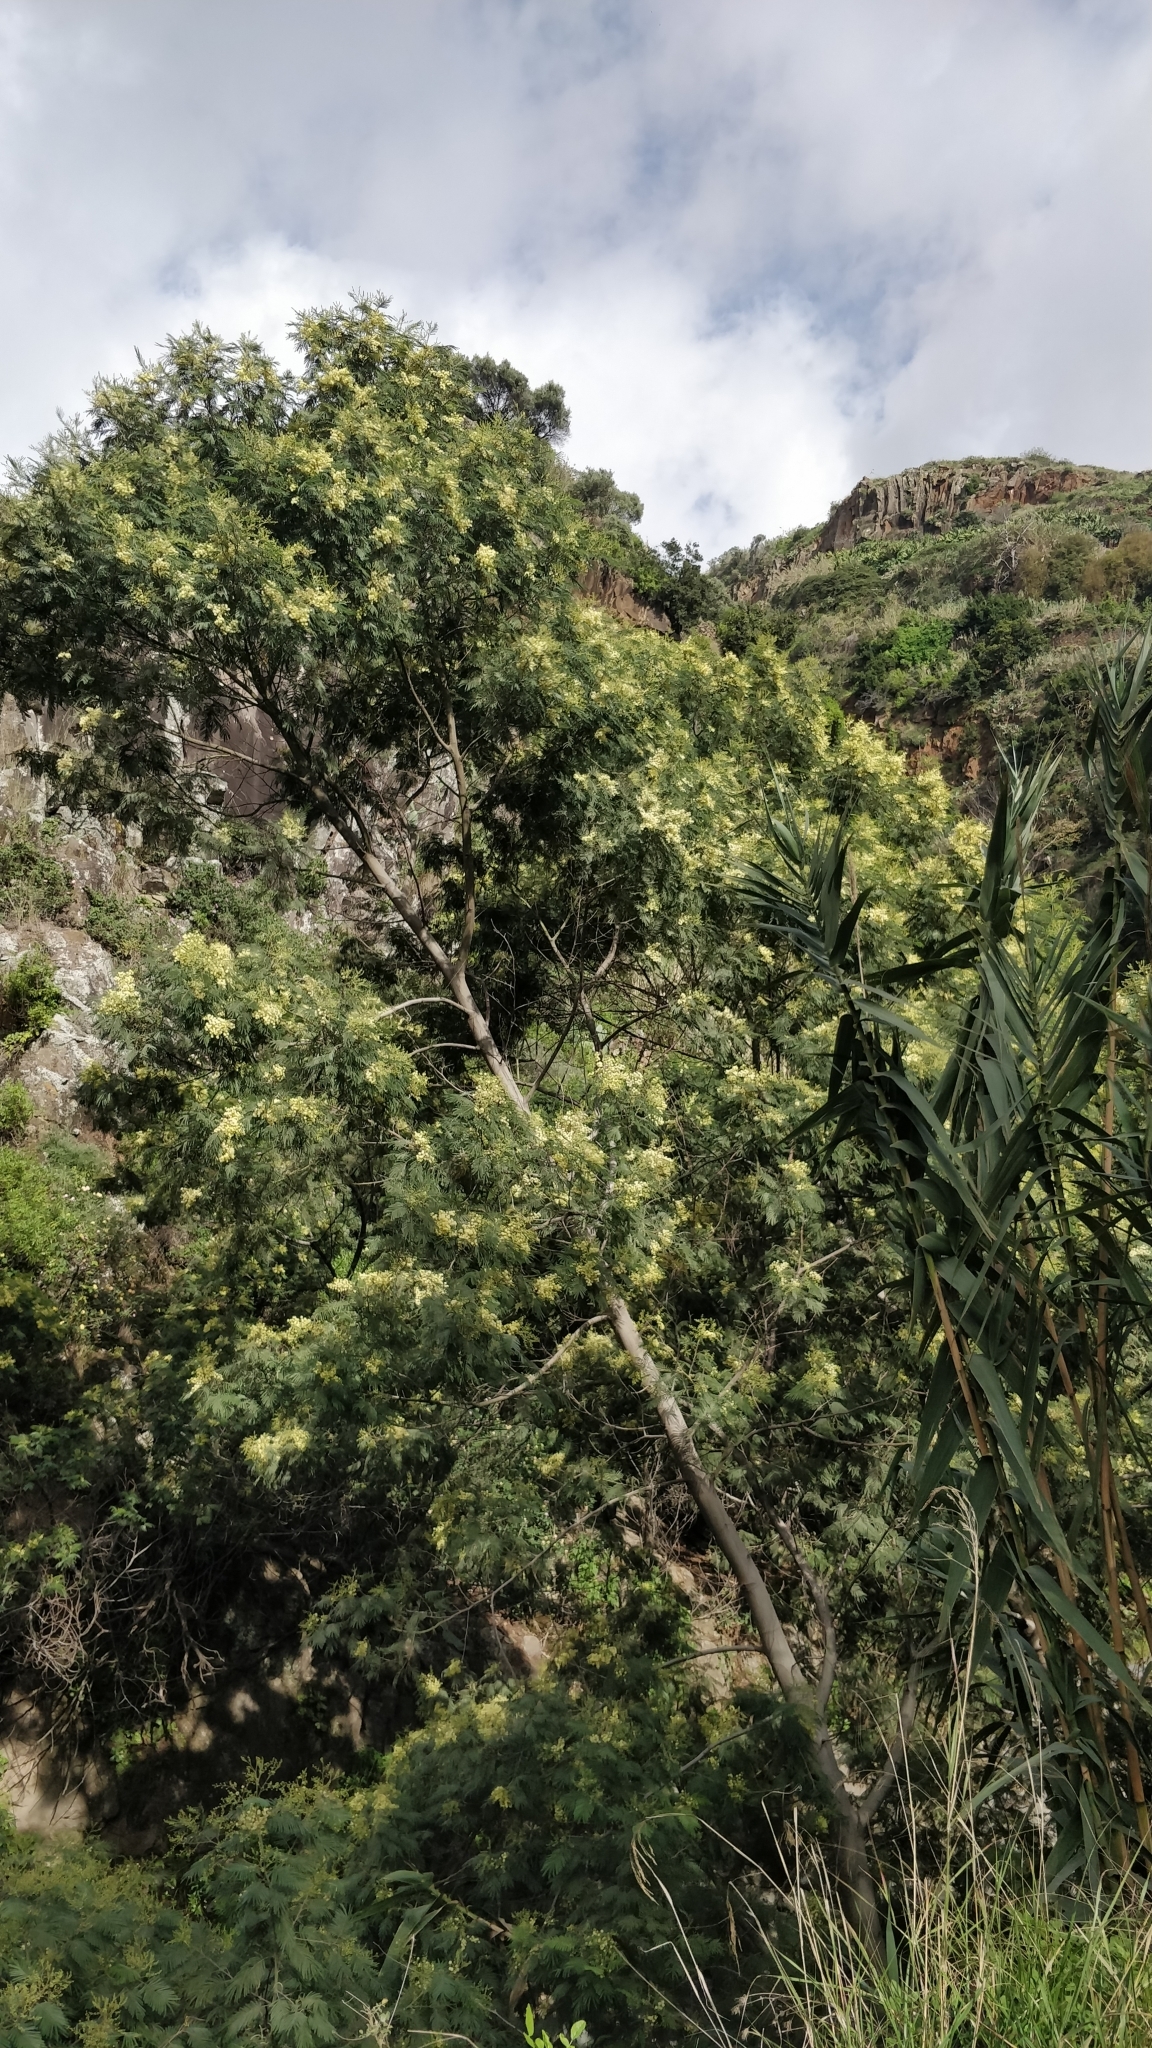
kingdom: Plantae
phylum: Tracheophyta
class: Magnoliopsida
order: Fabales
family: Fabaceae
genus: Acacia
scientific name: Acacia mearnsii
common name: Black wattle
